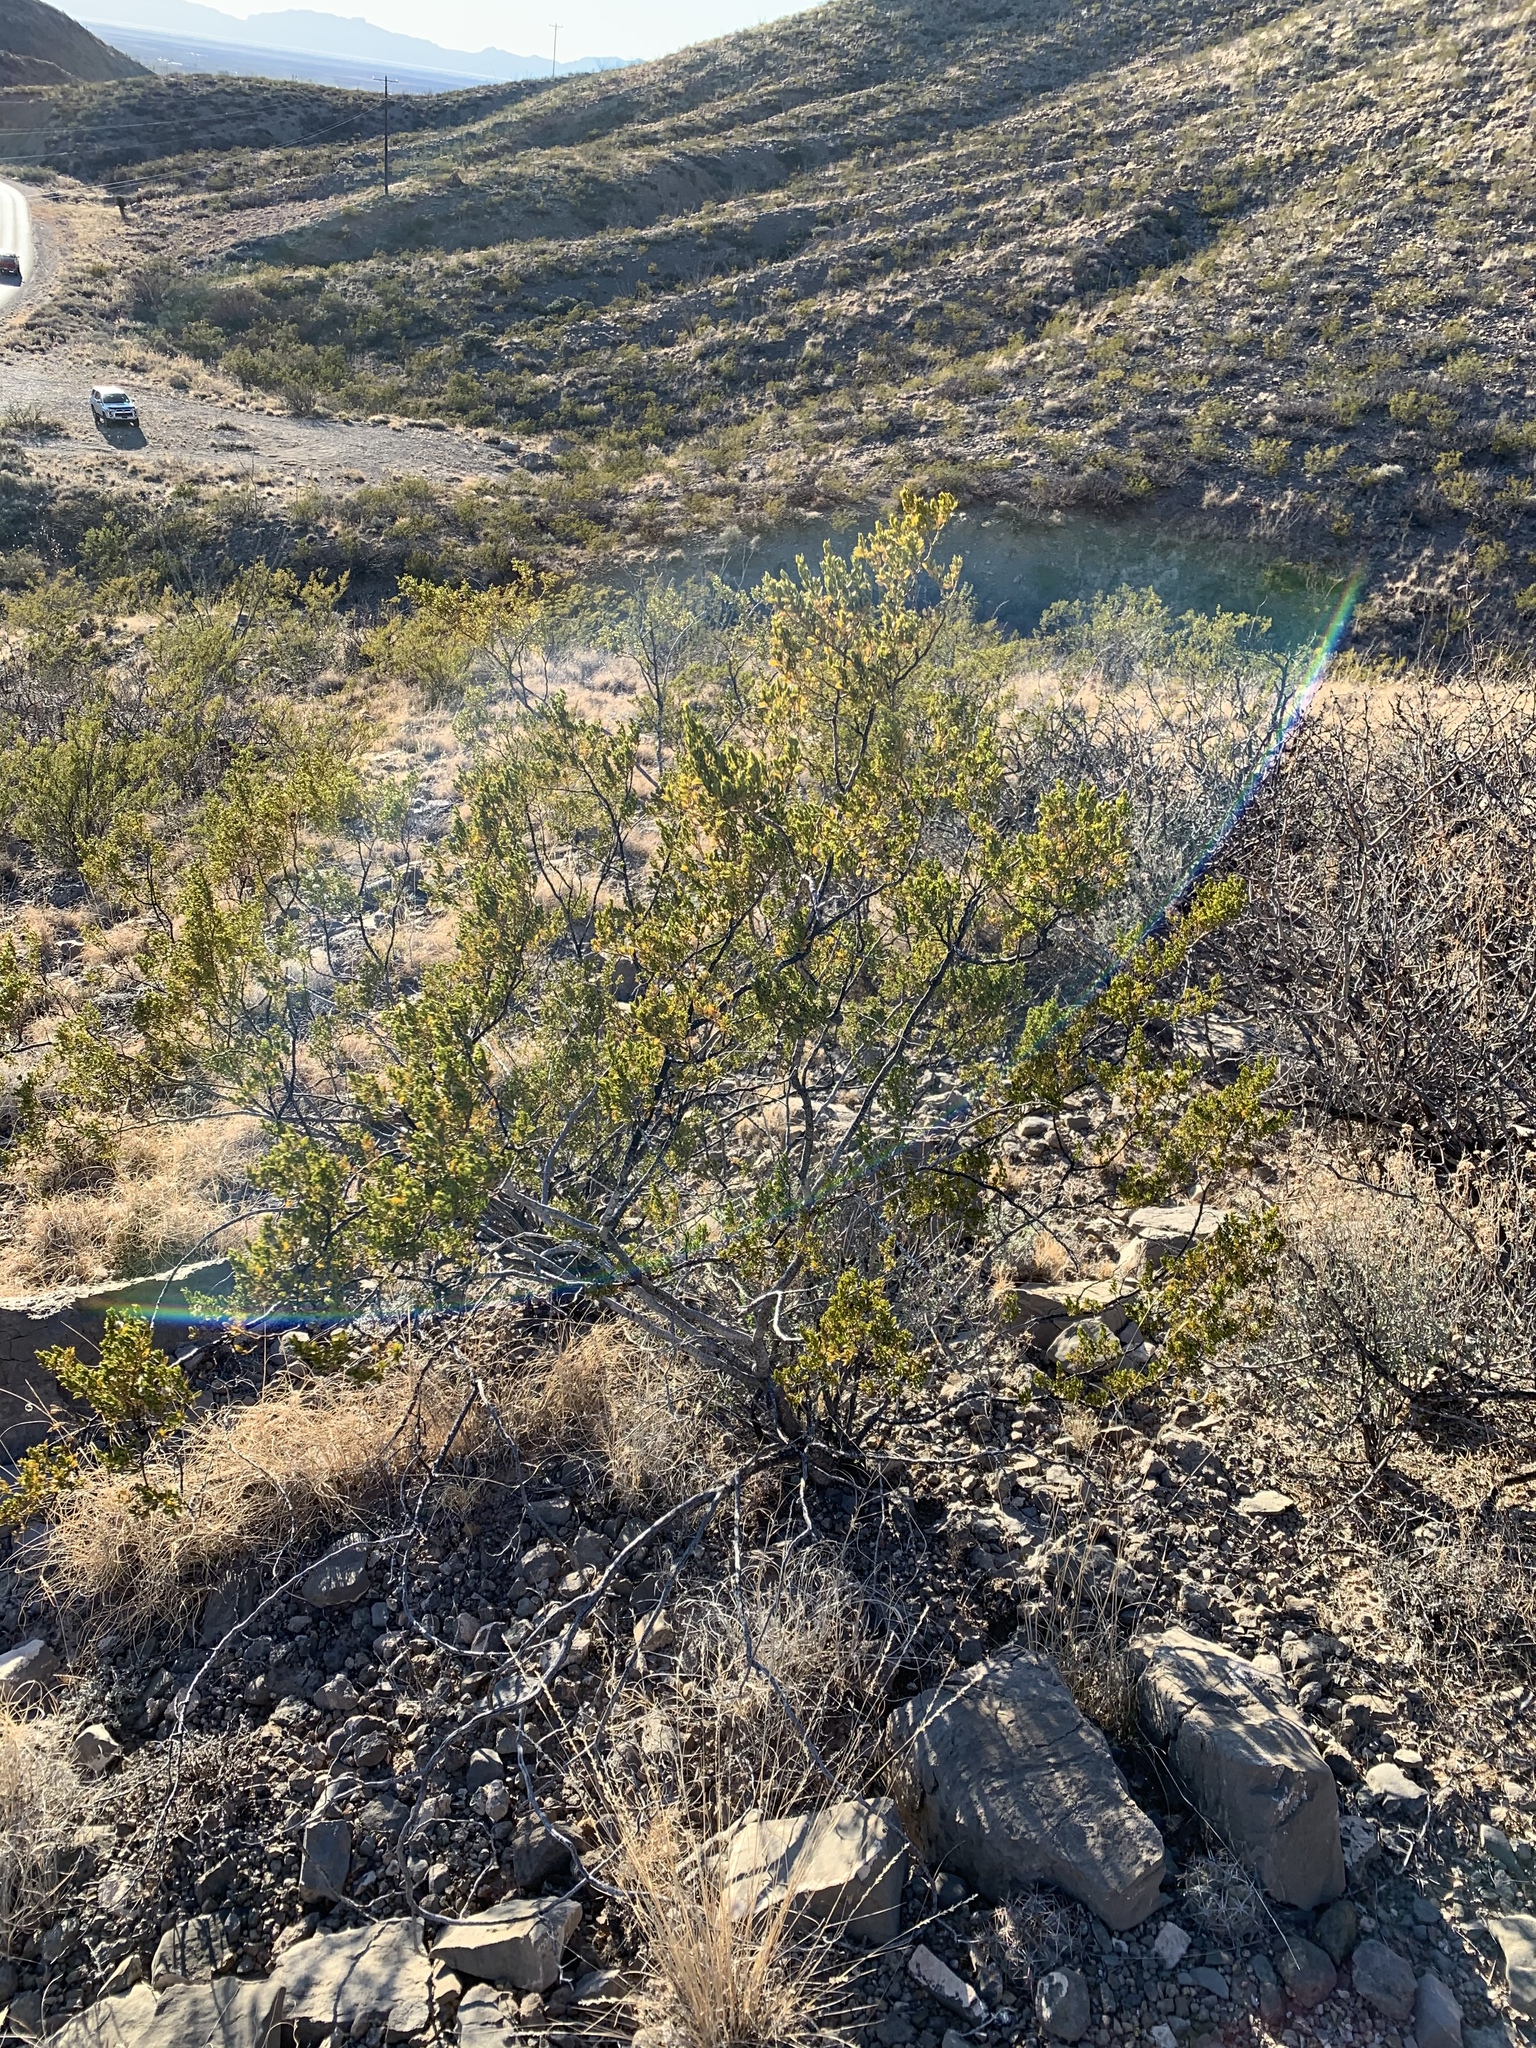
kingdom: Plantae
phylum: Tracheophyta
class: Magnoliopsida
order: Zygophyllales
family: Zygophyllaceae
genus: Larrea
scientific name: Larrea tridentata
